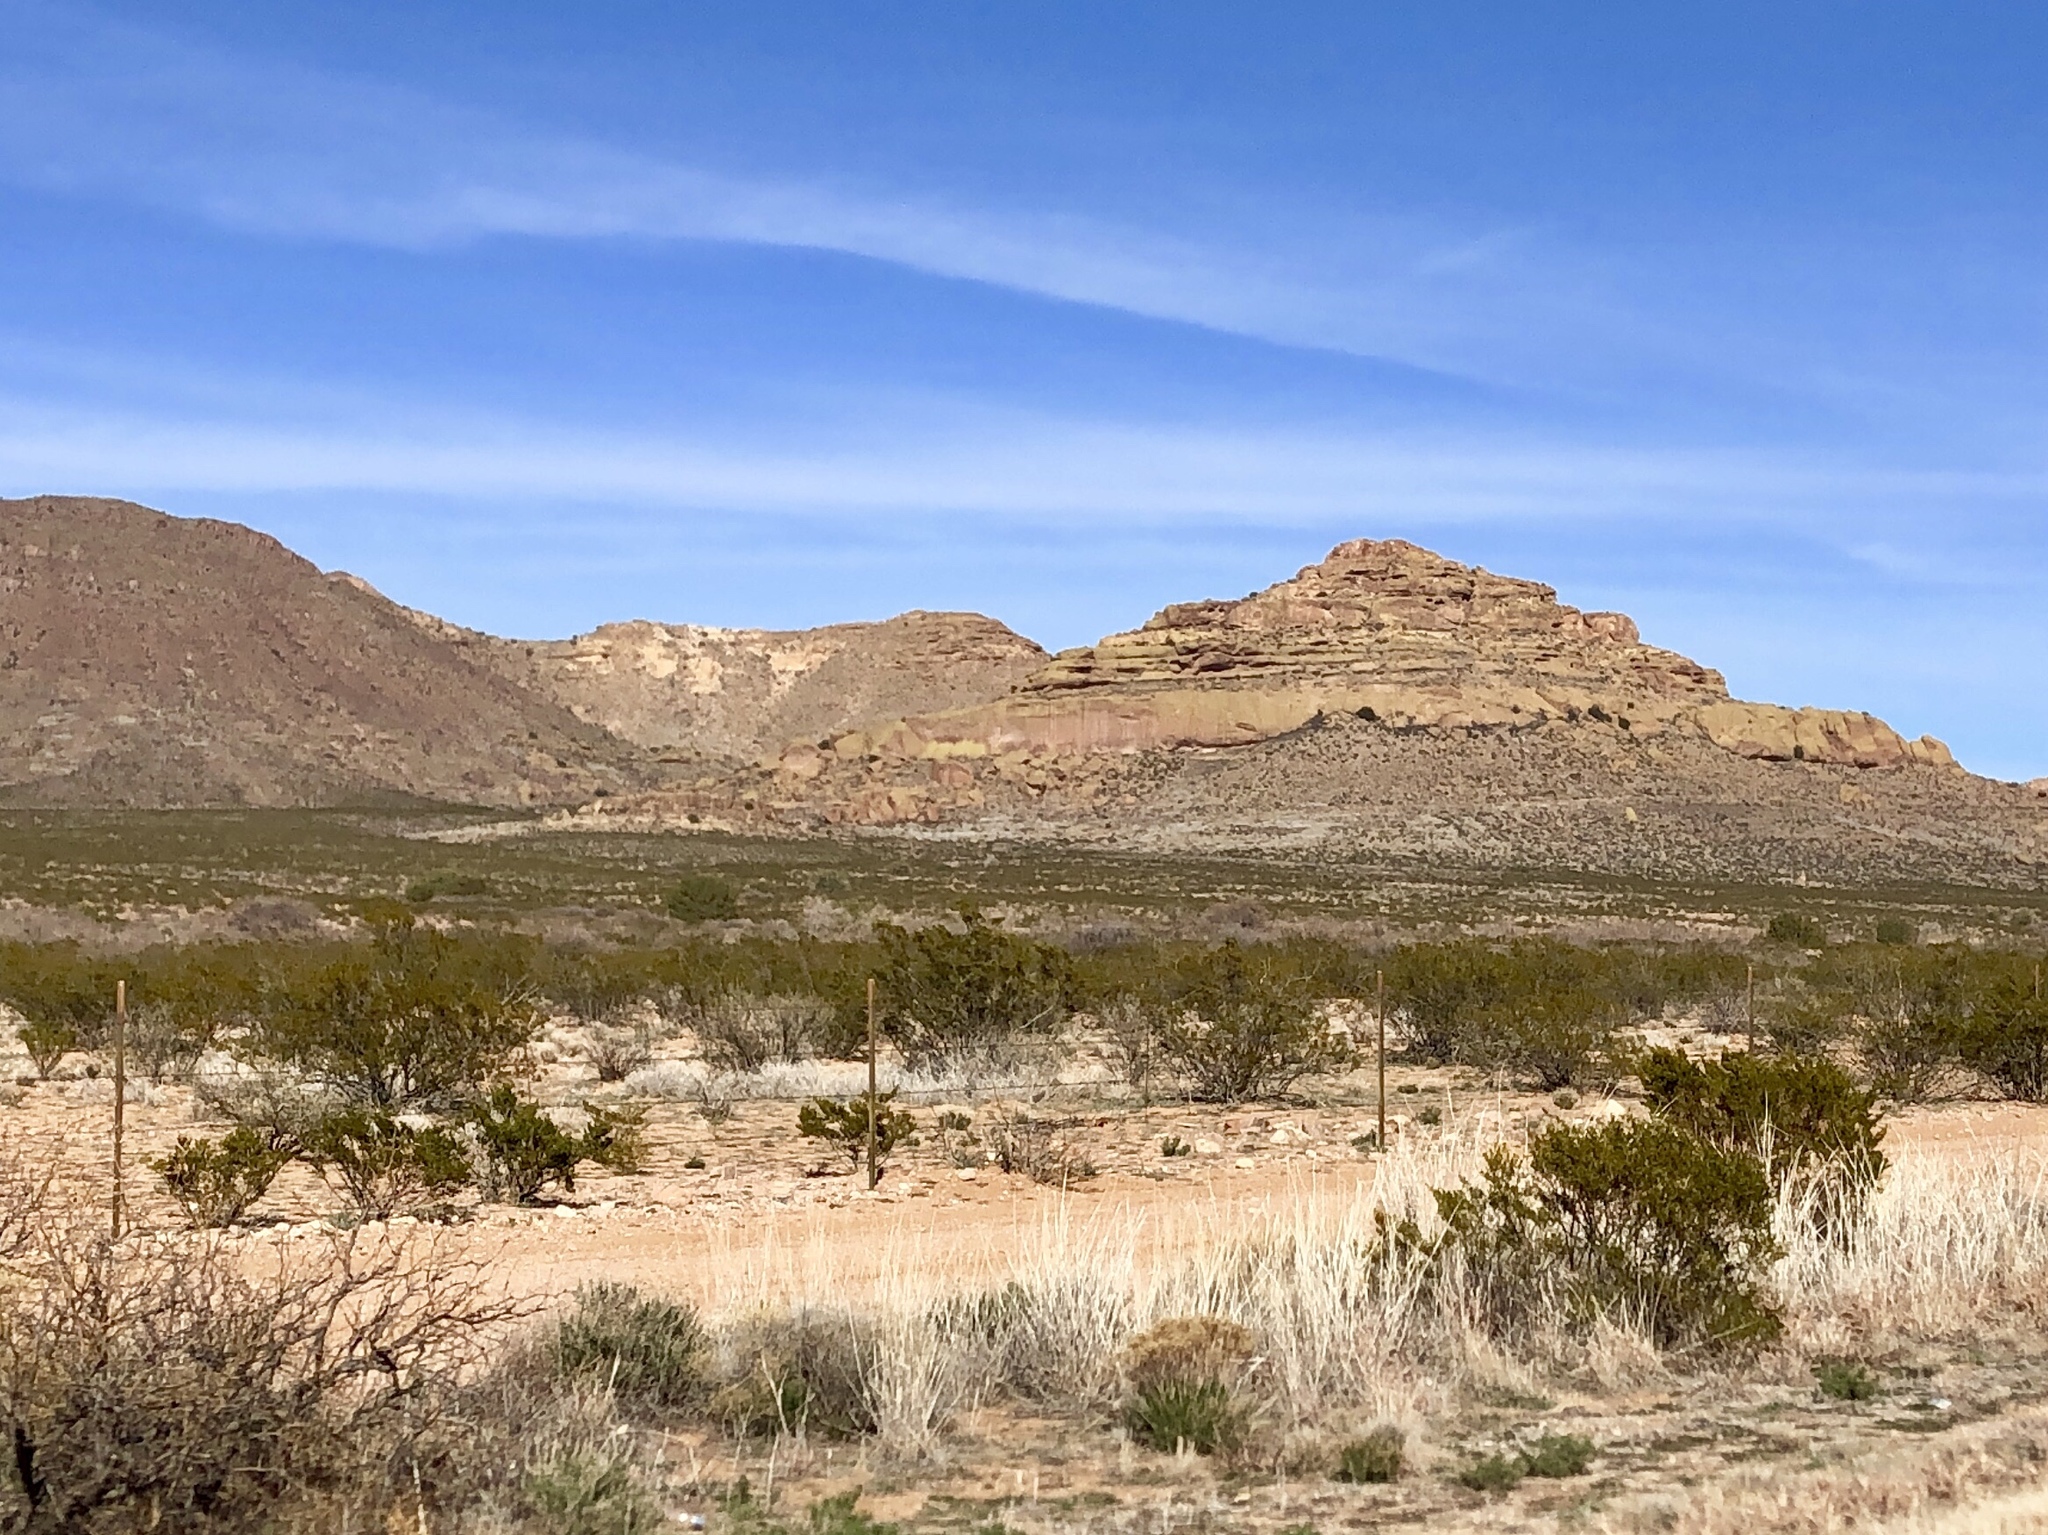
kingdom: Plantae
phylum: Tracheophyta
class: Magnoliopsida
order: Zygophyllales
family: Zygophyllaceae
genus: Larrea
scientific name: Larrea tridentata
